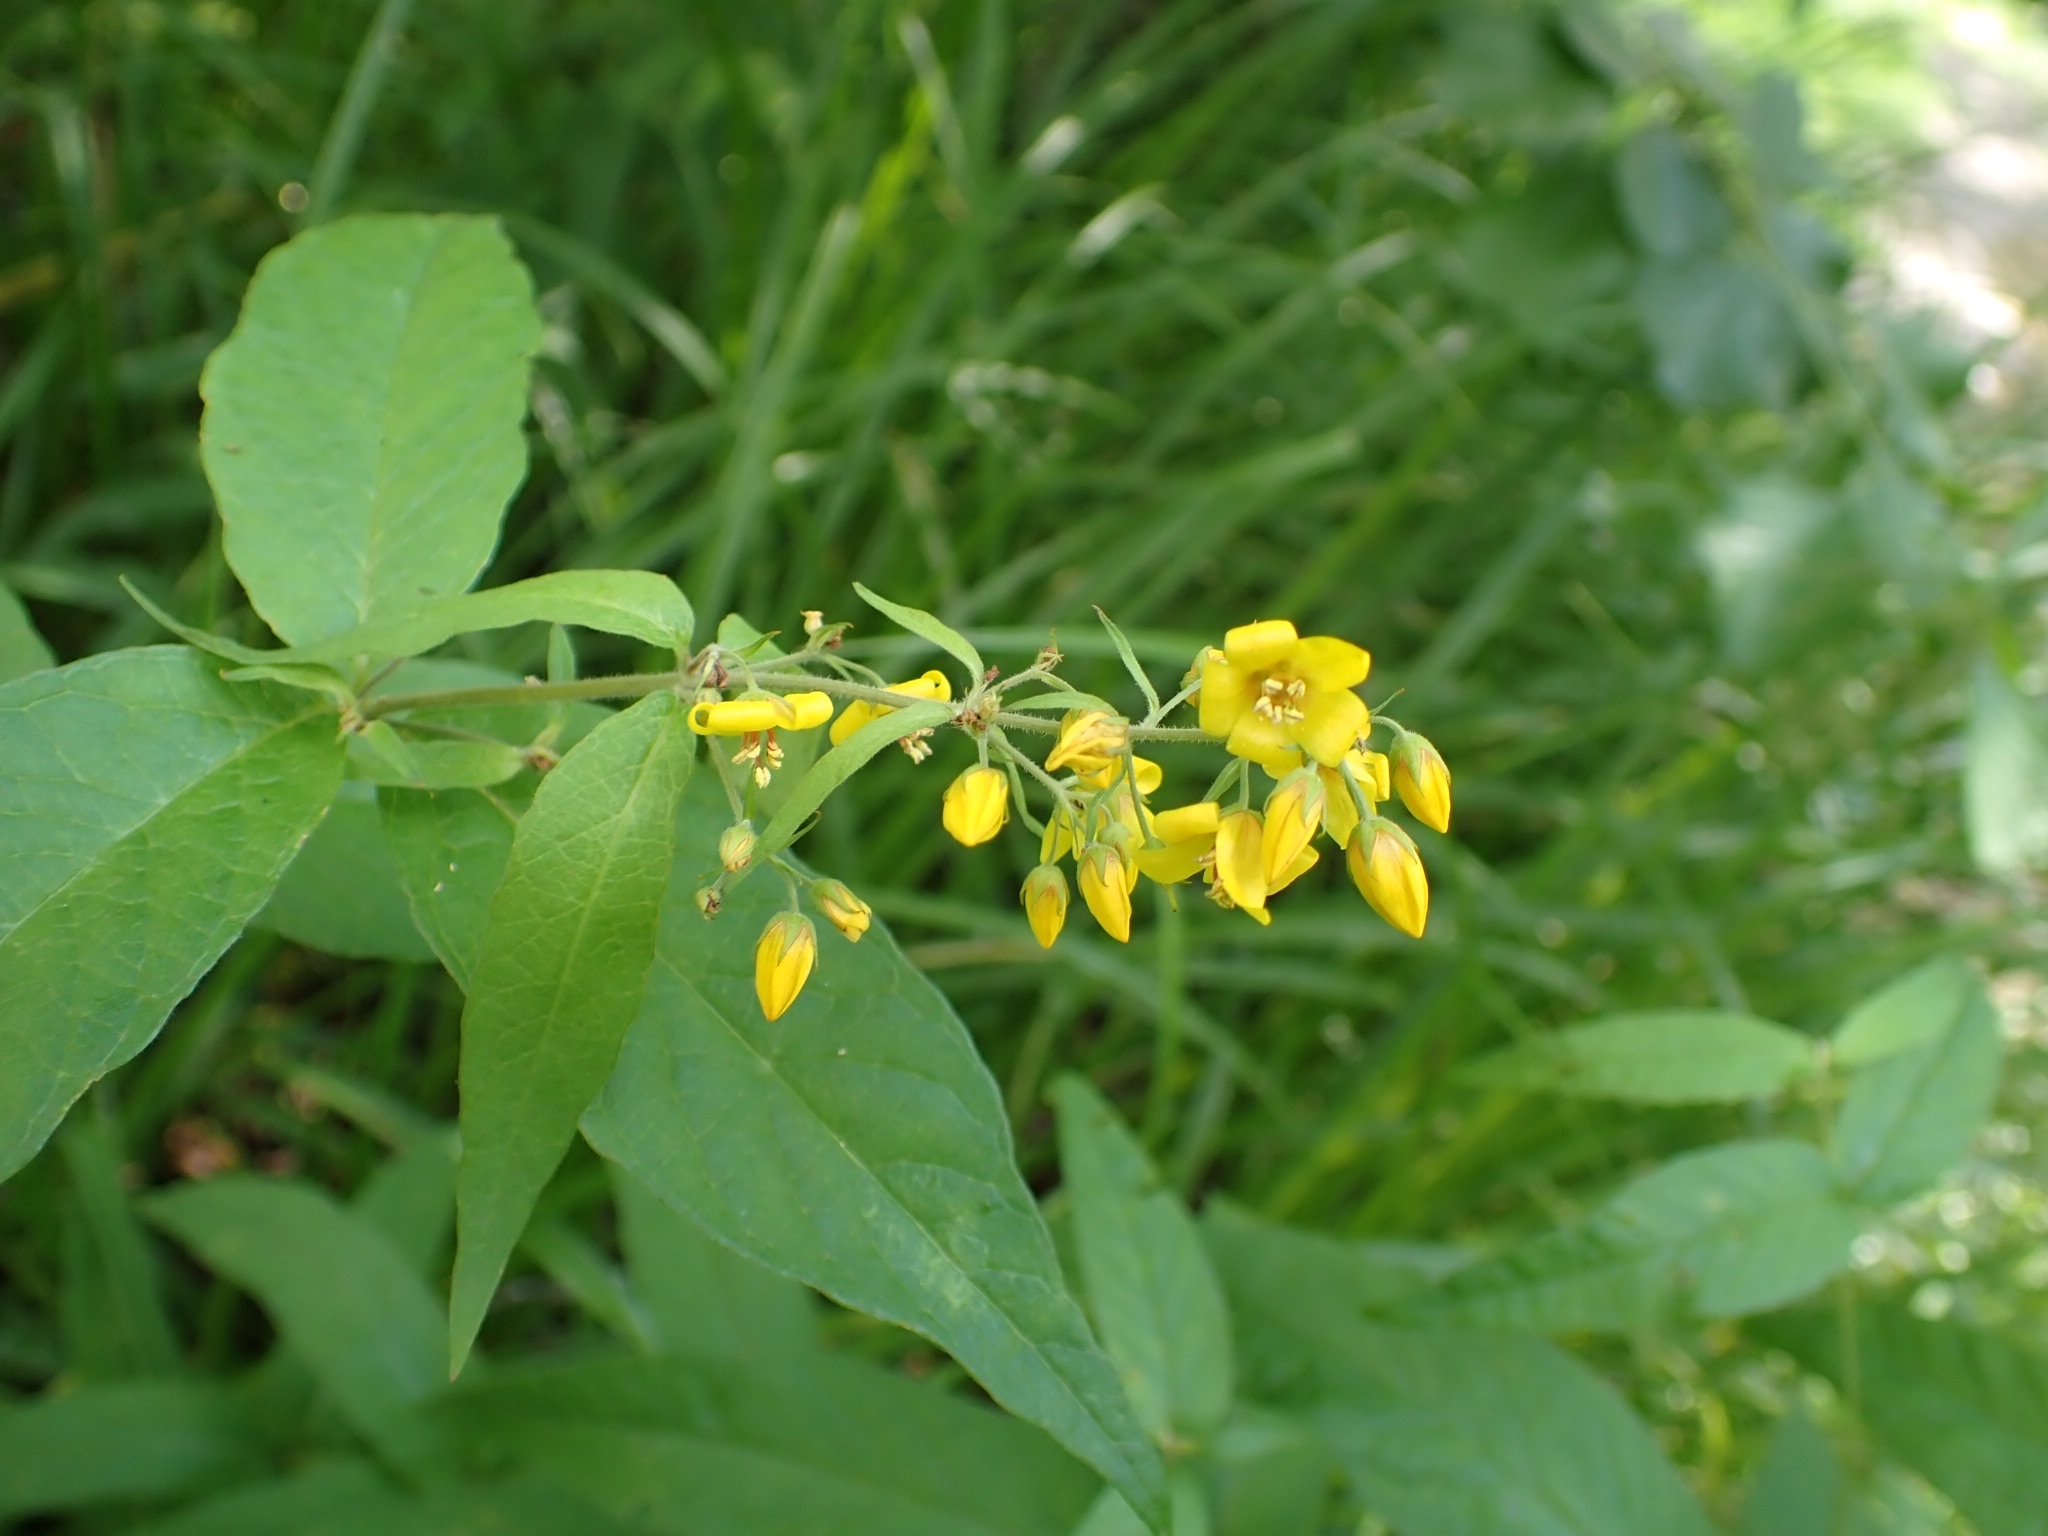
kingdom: Plantae
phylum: Tracheophyta
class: Magnoliopsida
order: Ericales
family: Primulaceae
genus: Lysimachia
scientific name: Lysimachia vulgaris
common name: Yellow loosestrife
